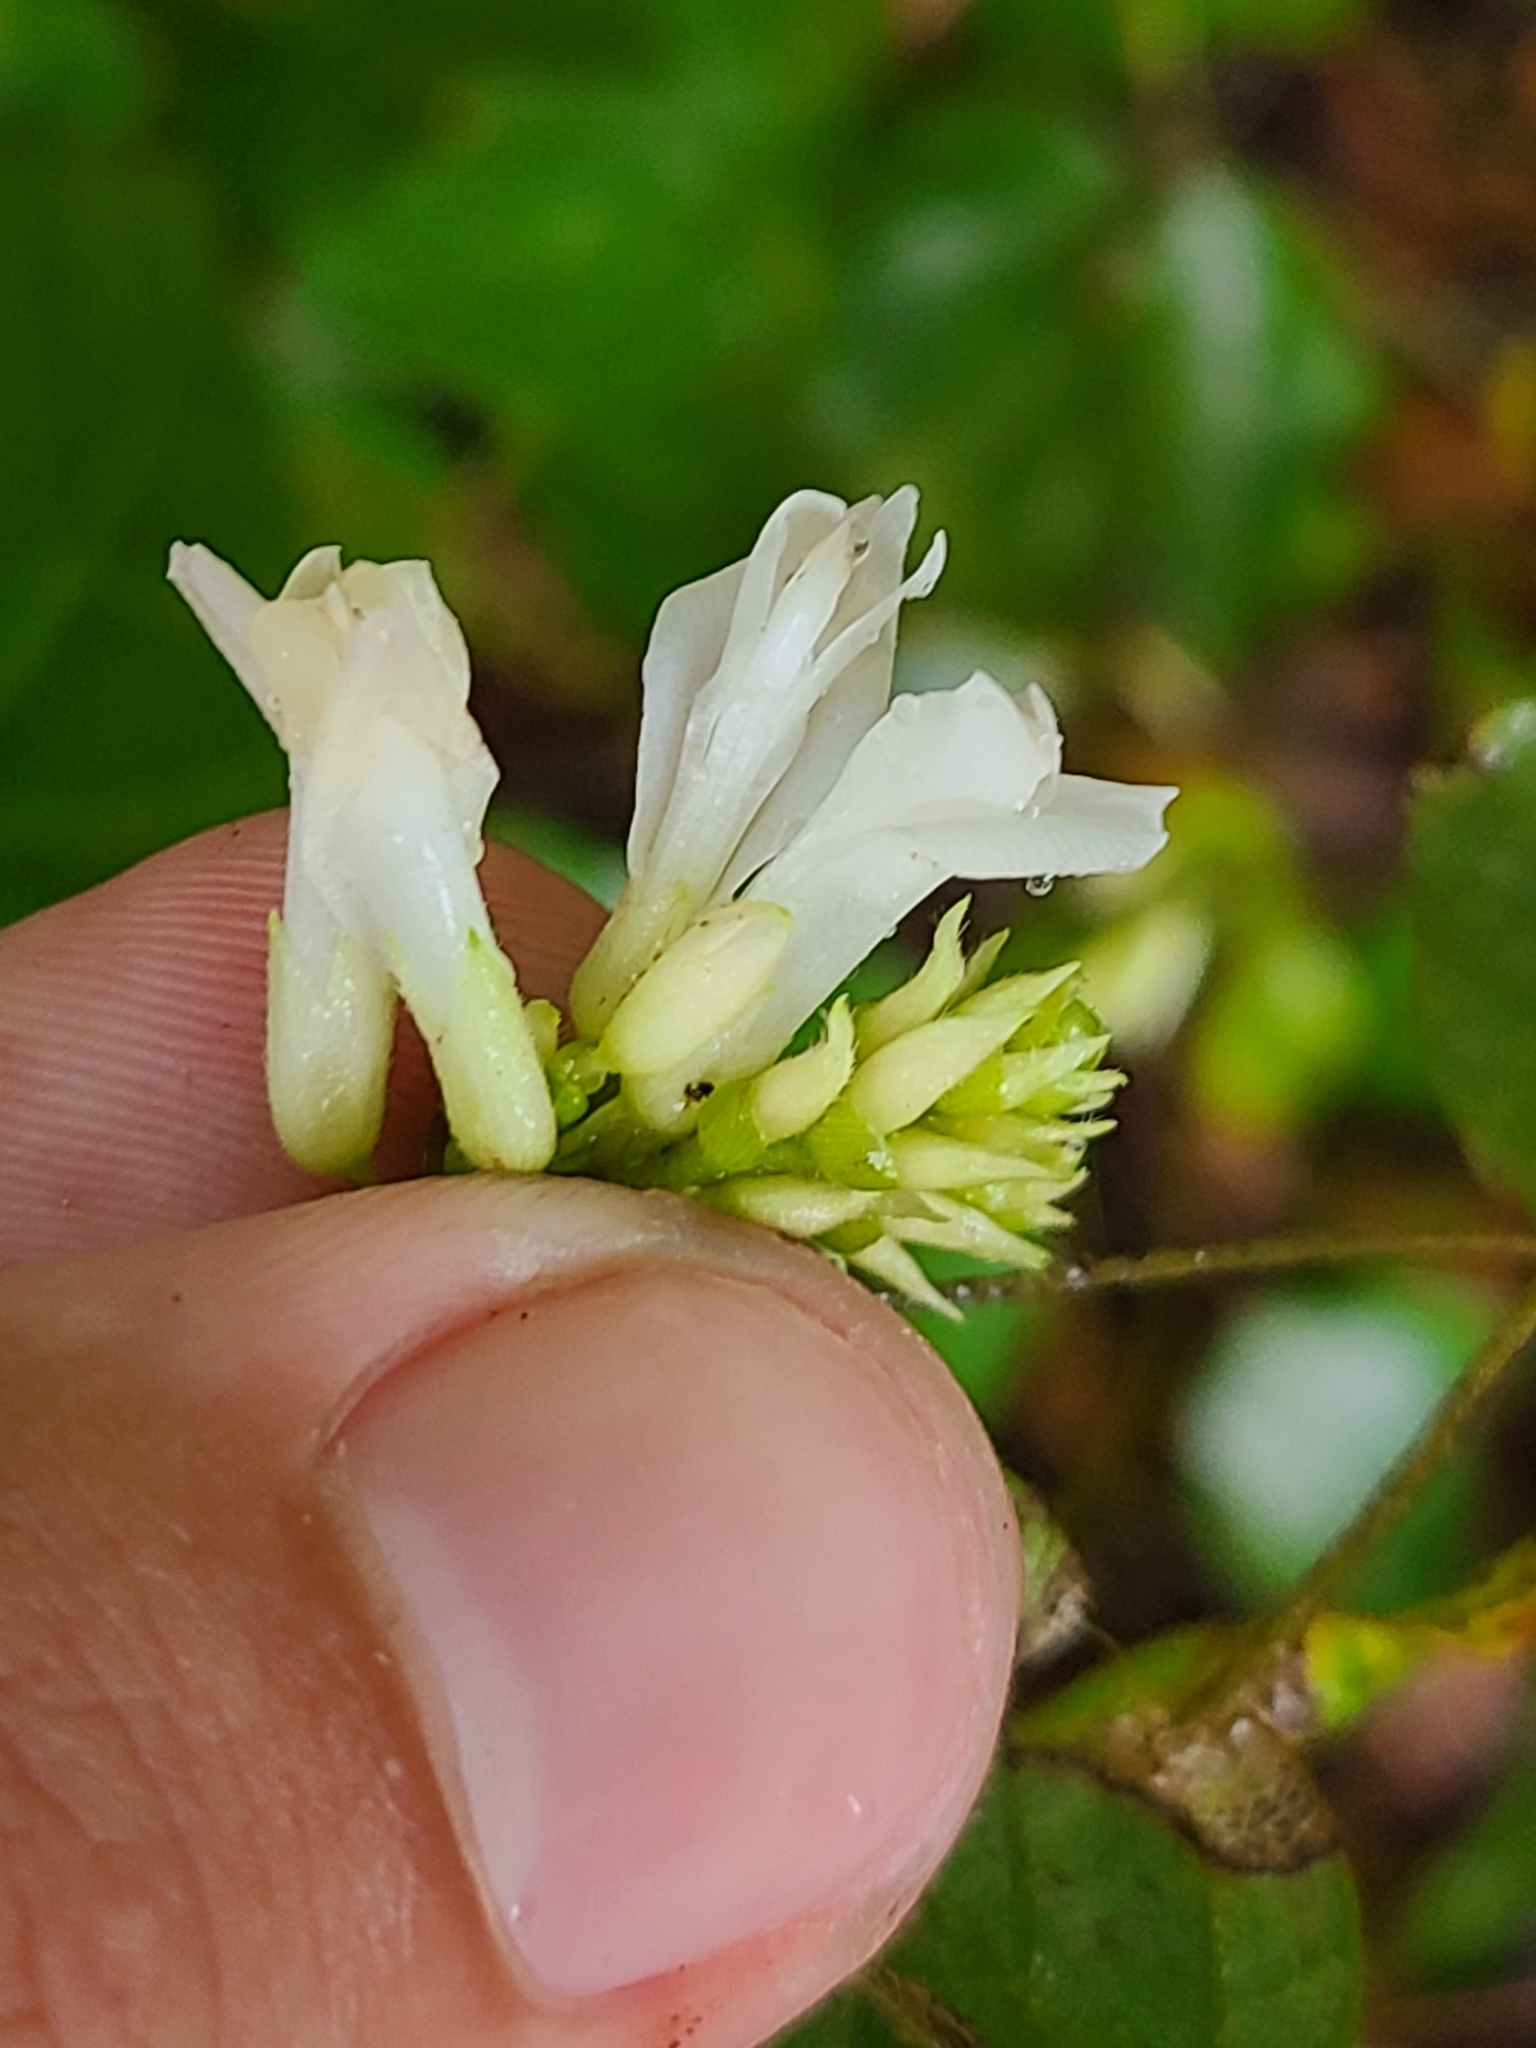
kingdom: Plantae
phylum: Tracheophyta
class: Magnoliopsida
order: Fabales
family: Fabaceae
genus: Amphicarpaea
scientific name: Amphicarpaea bracteata
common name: American hog peanut
